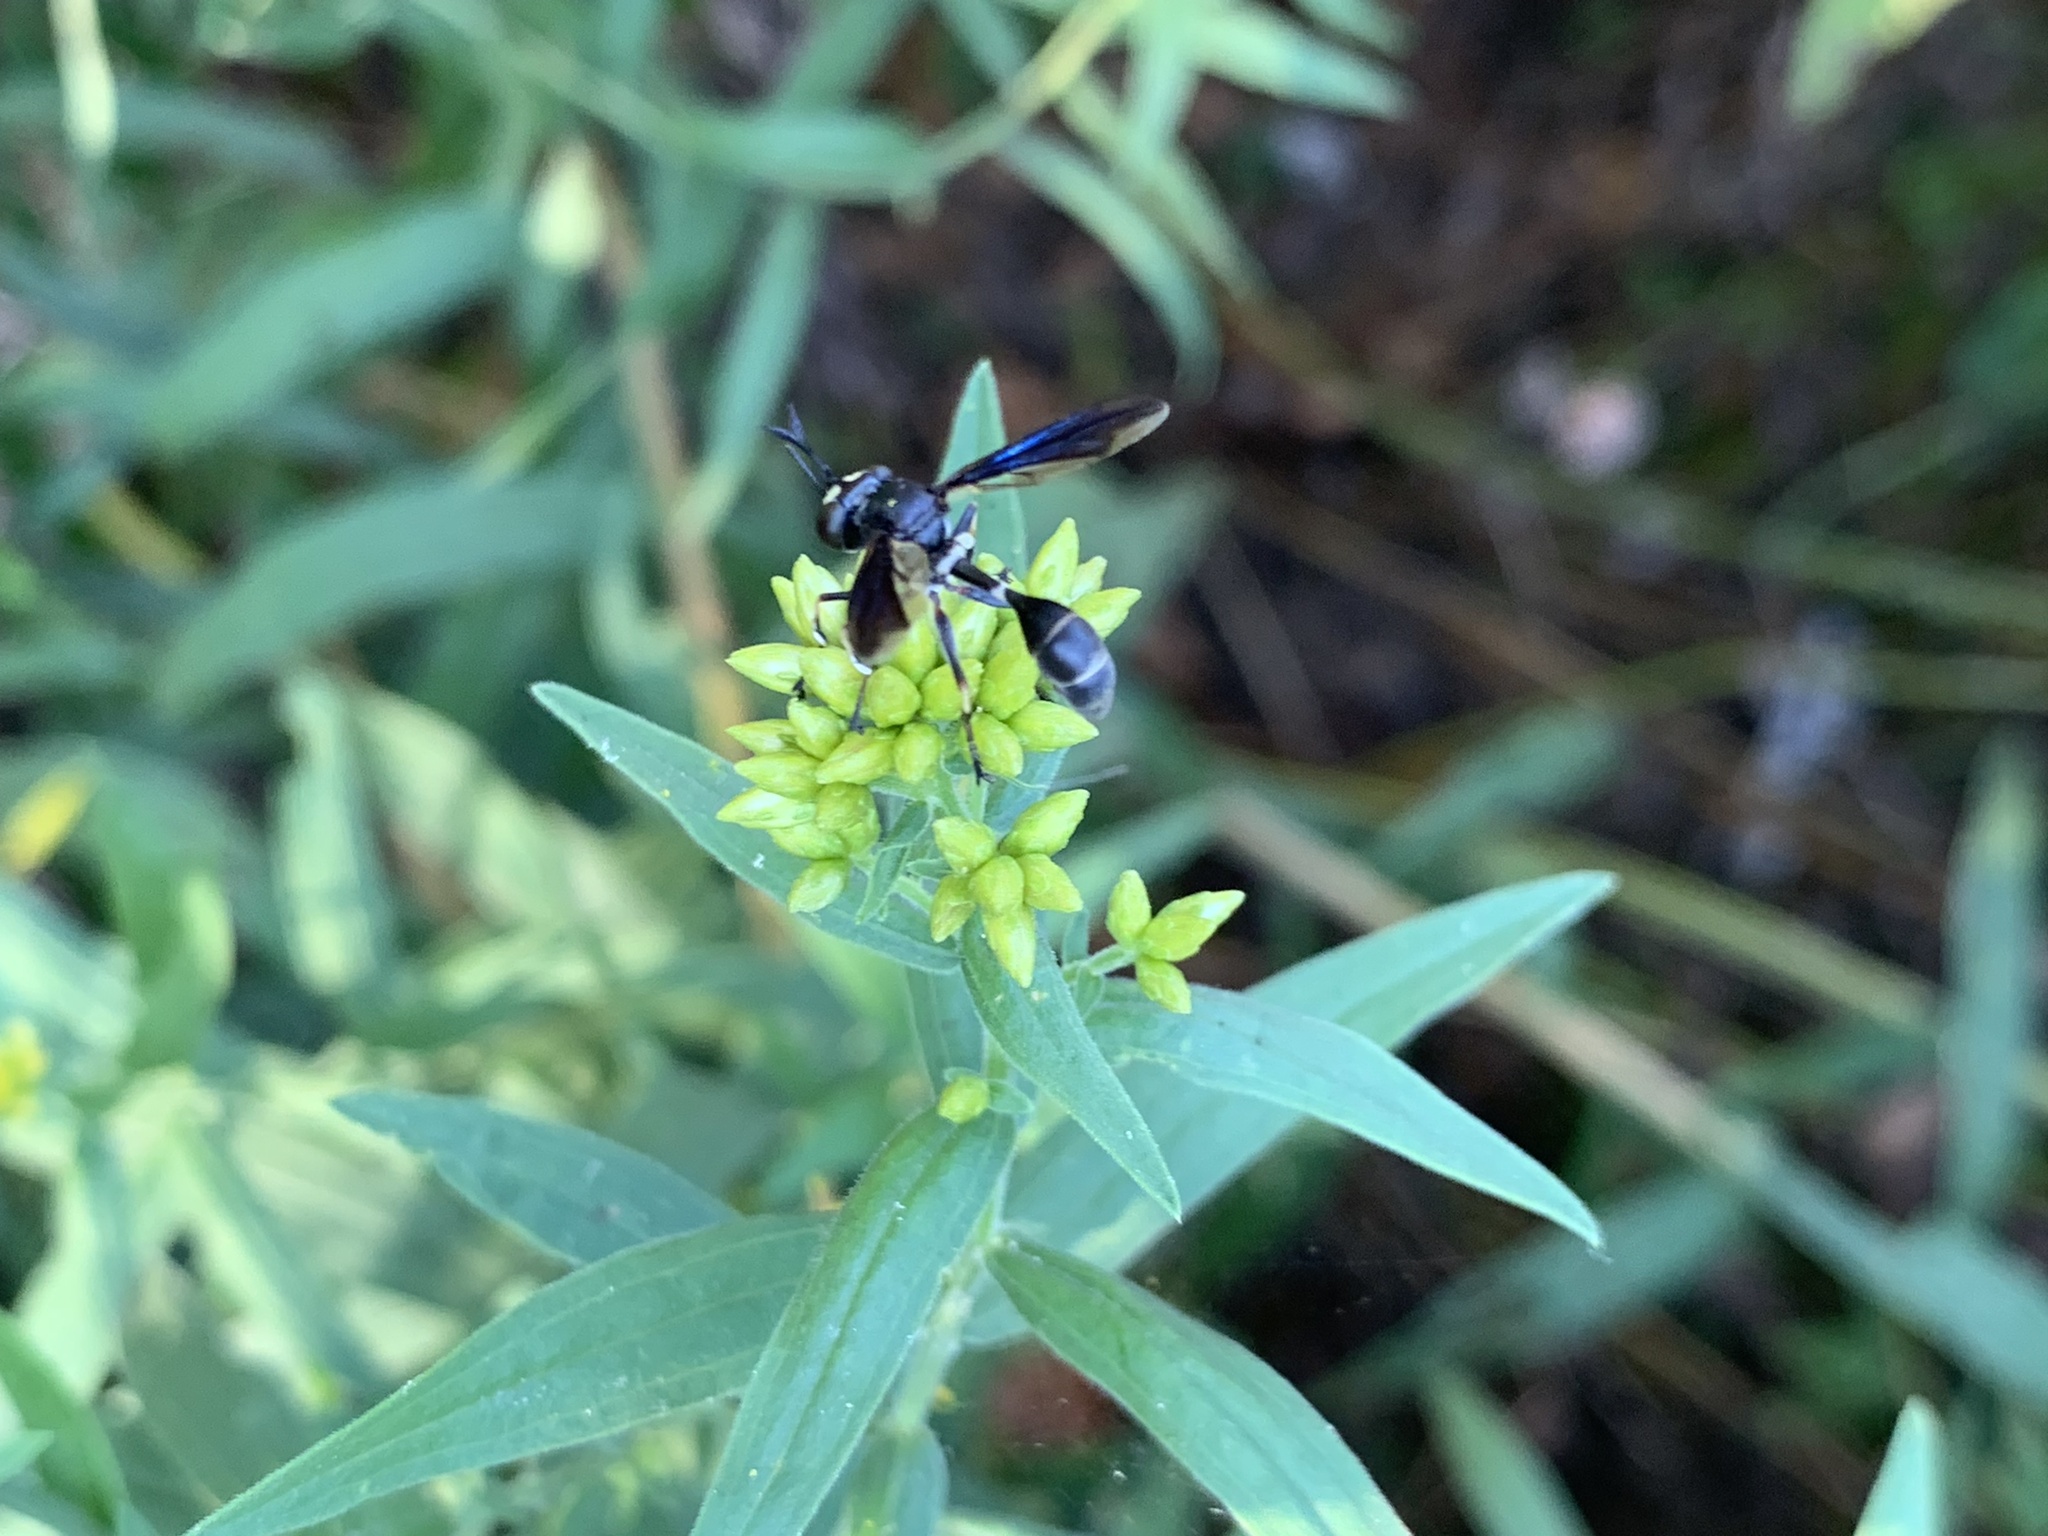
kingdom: Animalia
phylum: Arthropoda
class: Insecta
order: Diptera
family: Conopidae
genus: Physocephala
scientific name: Physocephala tibialis
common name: Common eastern physocephala
